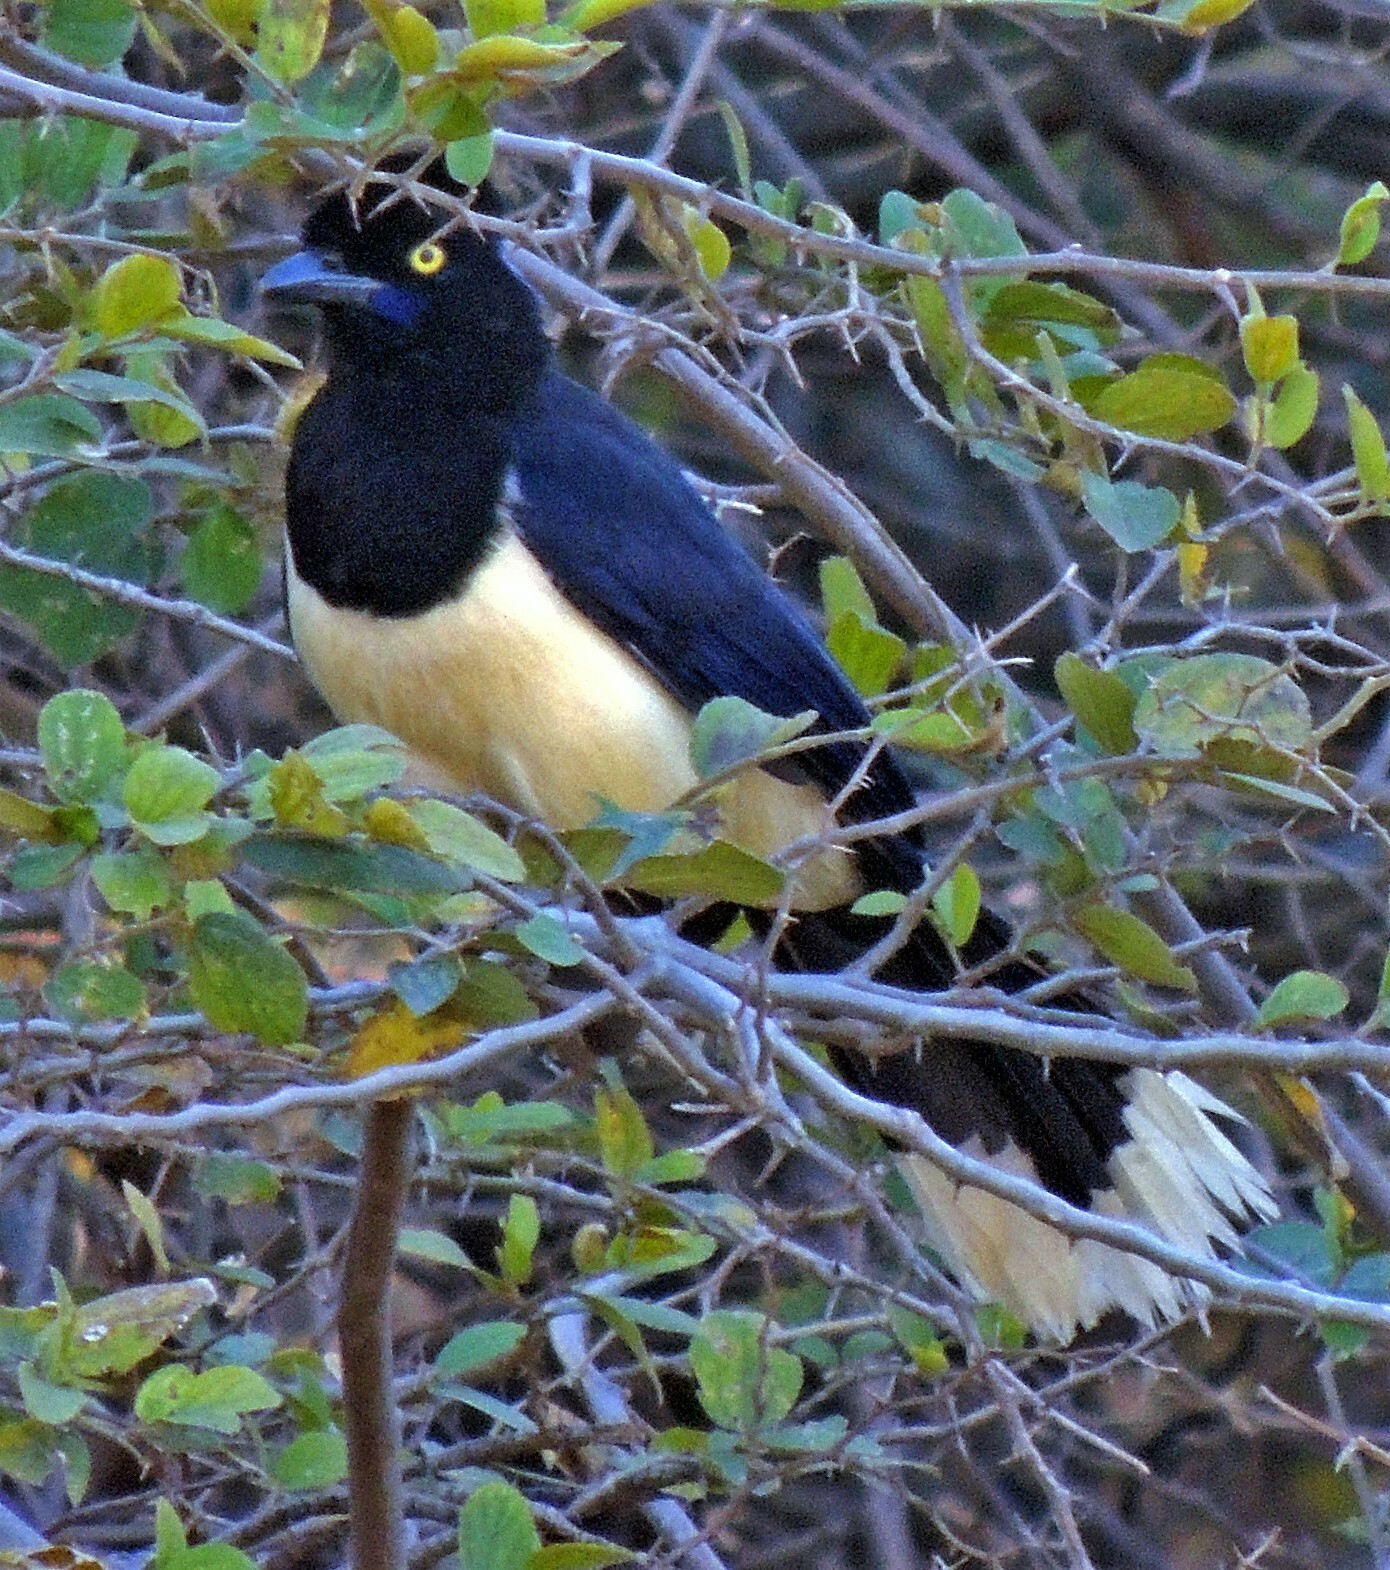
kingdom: Animalia
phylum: Chordata
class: Aves
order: Passeriformes
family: Corvidae
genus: Cyanocorax
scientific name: Cyanocorax chrysops
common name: Plush-crested jay
